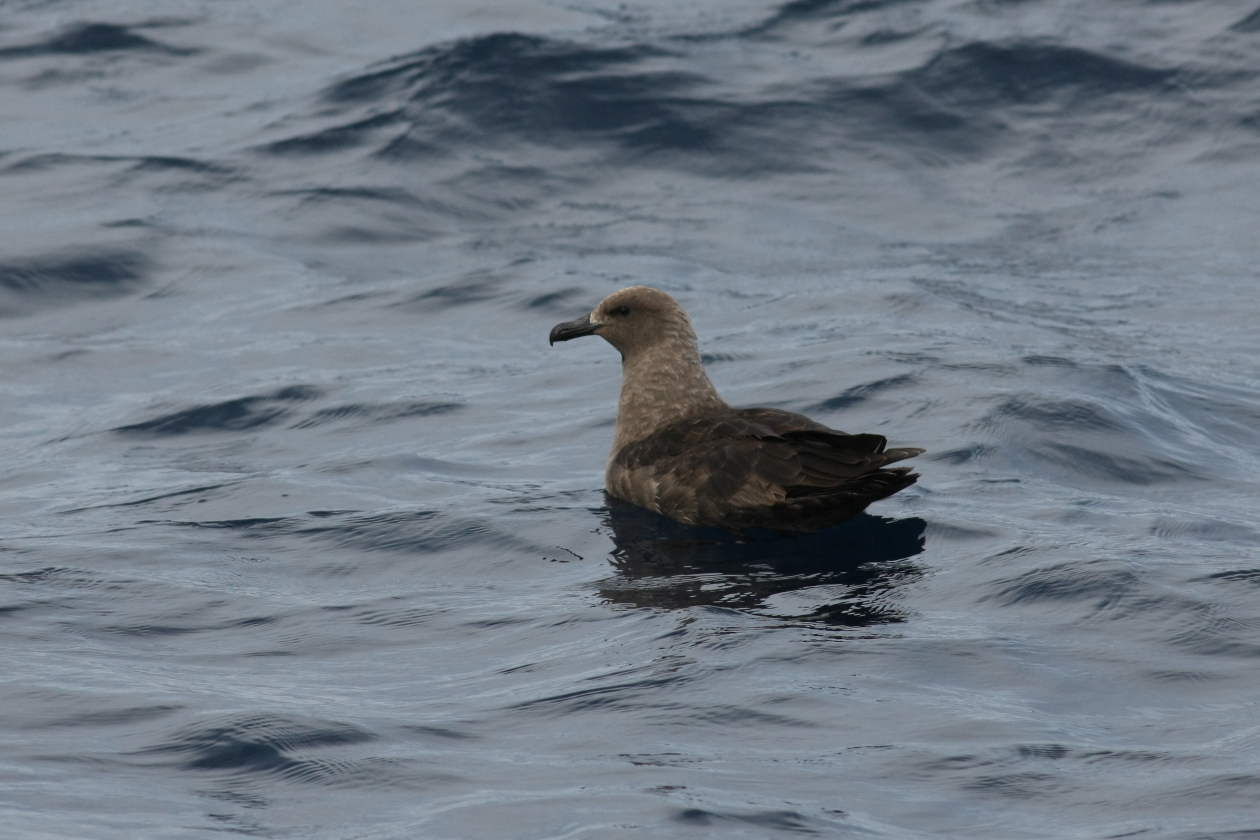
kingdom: Animalia
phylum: Chordata
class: Aves
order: Charadriiformes
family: Stercorariidae
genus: Stercorarius
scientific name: Stercorarius maccormicki
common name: South polar skua
